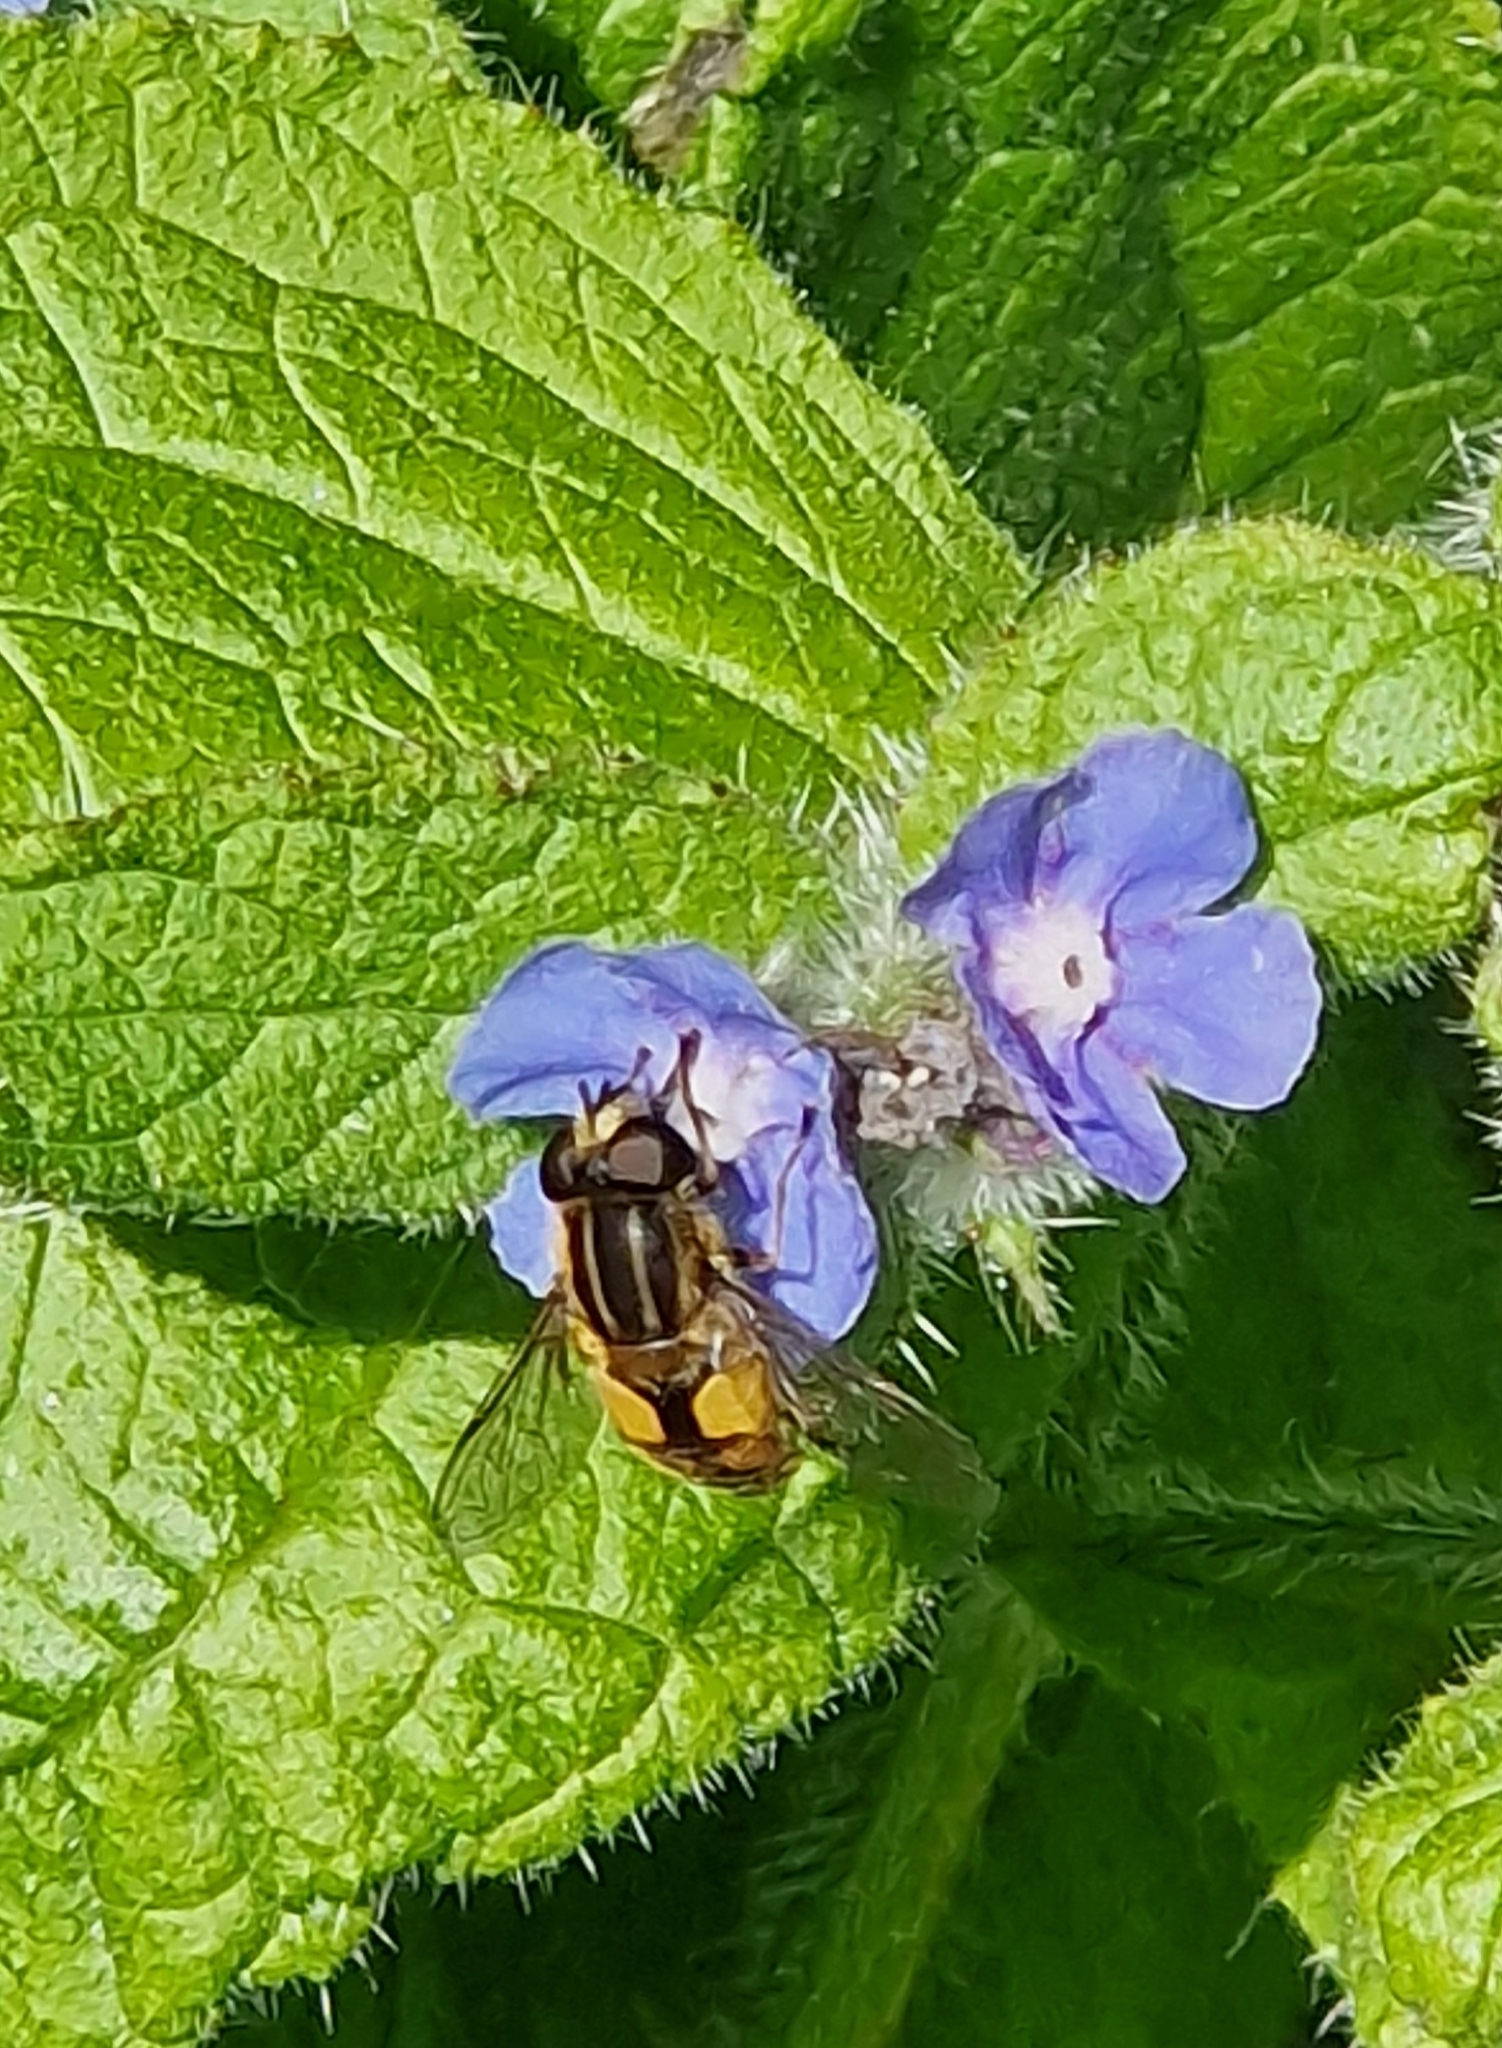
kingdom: Animalia
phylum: Arthropoda
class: Insecta
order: Diptera
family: Syrphidae
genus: Helophilus
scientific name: Helophilus hybridus
